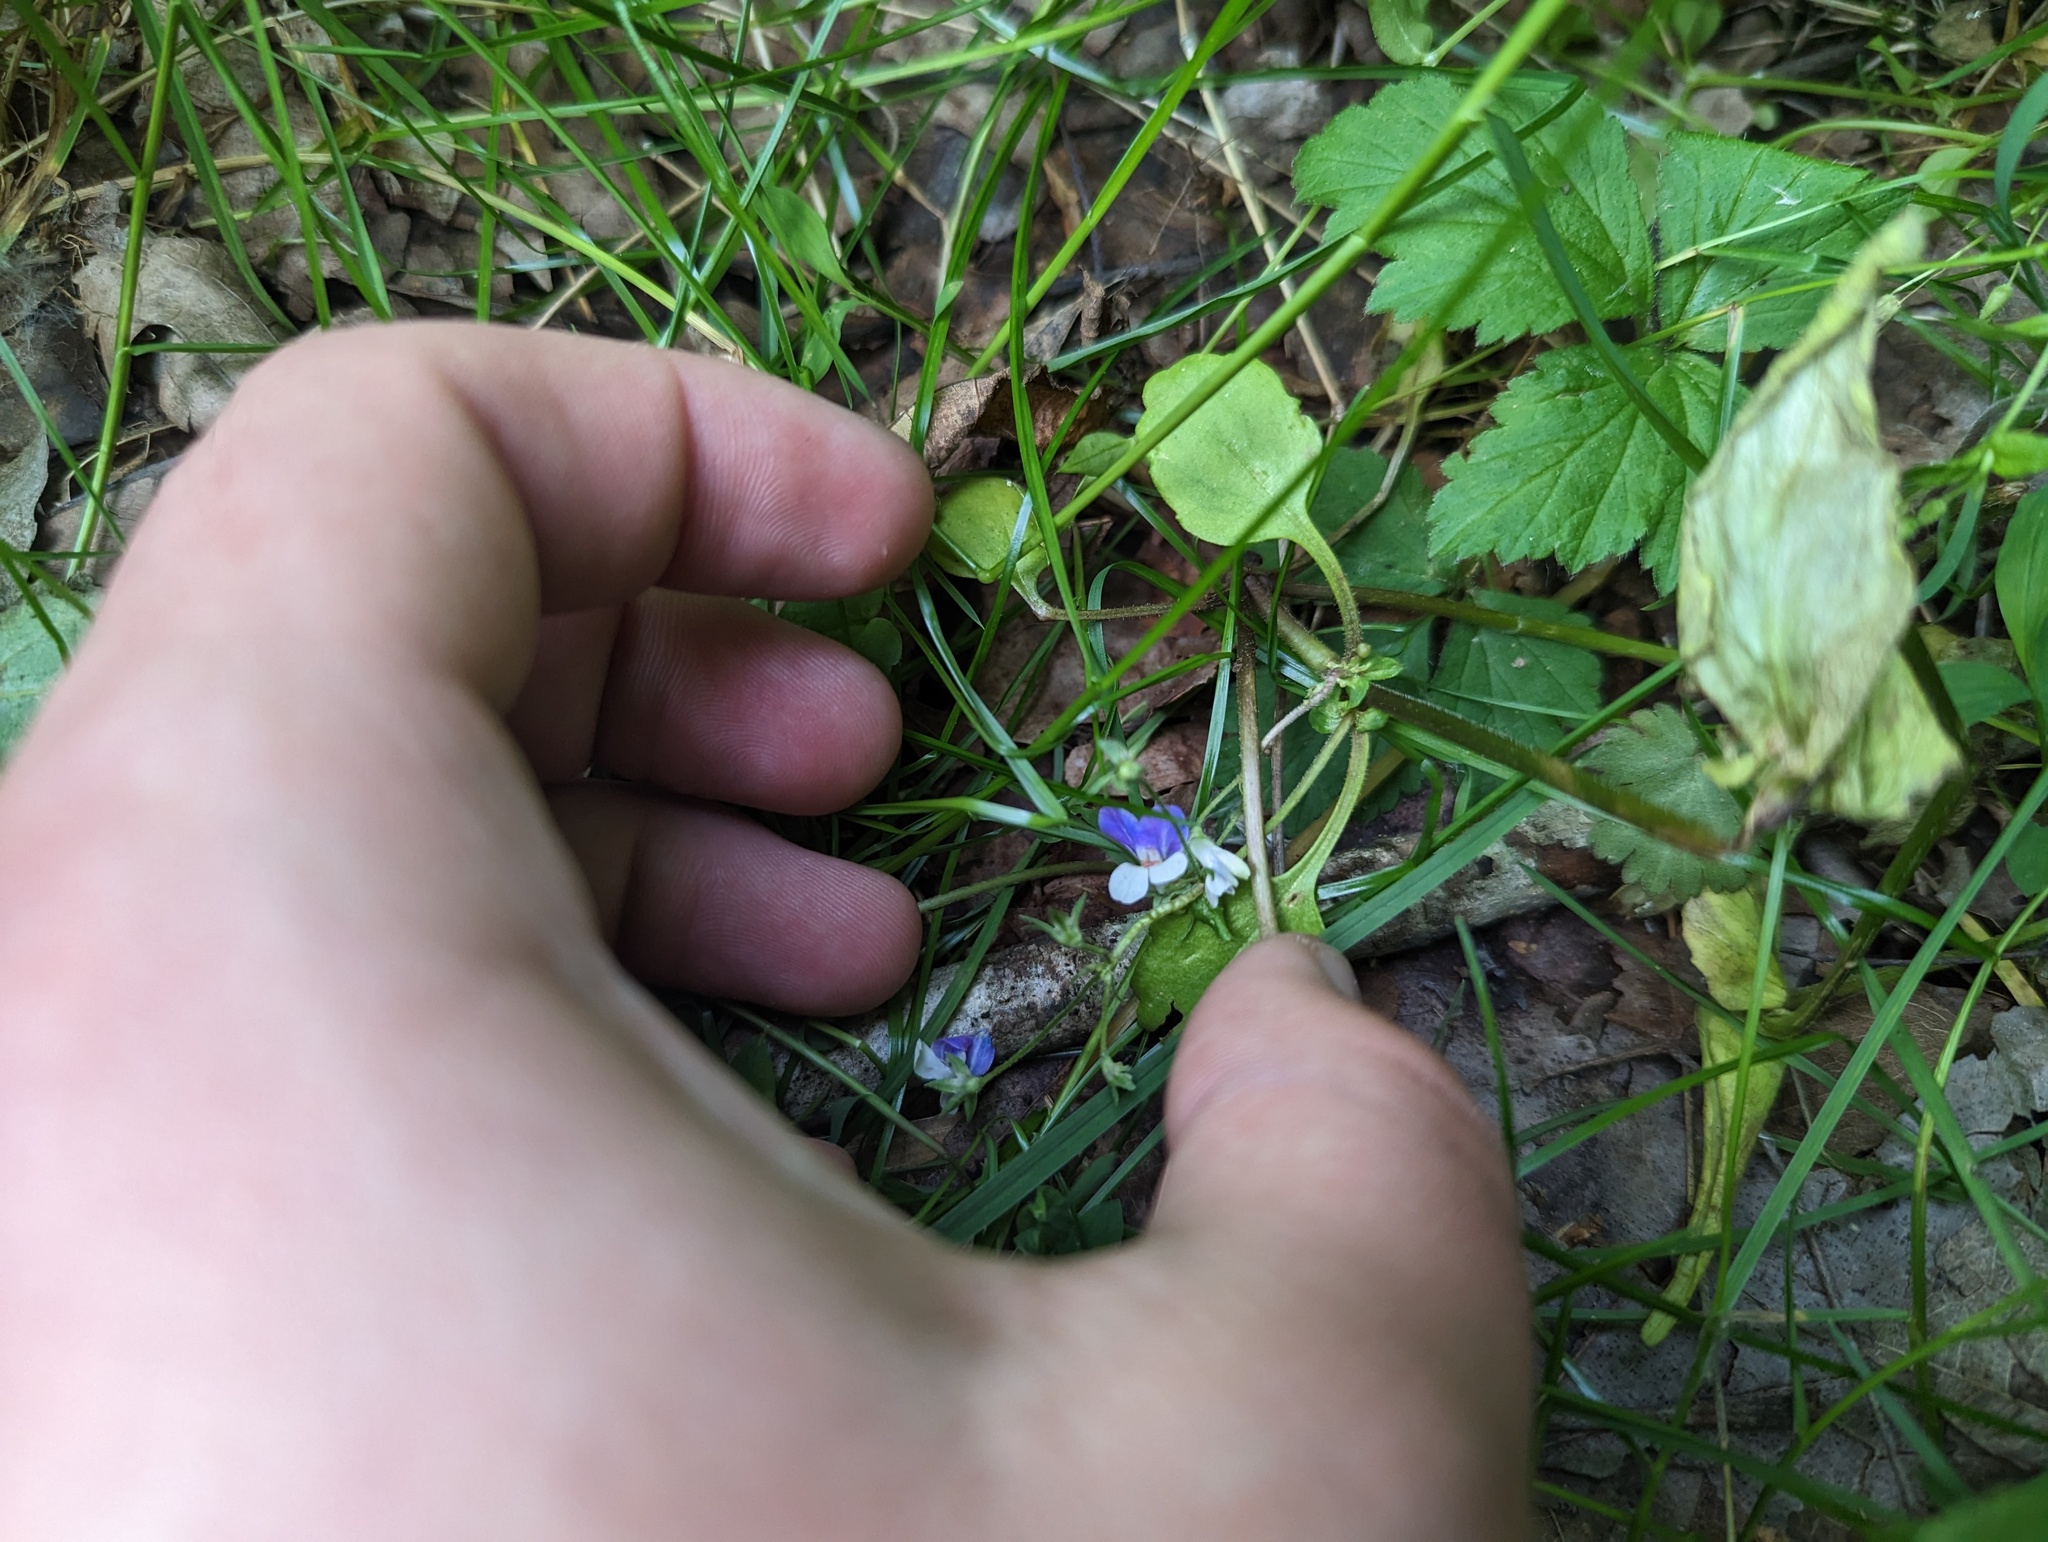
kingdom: Plantae
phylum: Tracheophyta
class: Magnoliopsida
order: Lamiales
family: Plantaginaceae
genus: Collinsia
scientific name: Collinsia verna
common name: Broad-leaved collinsia
